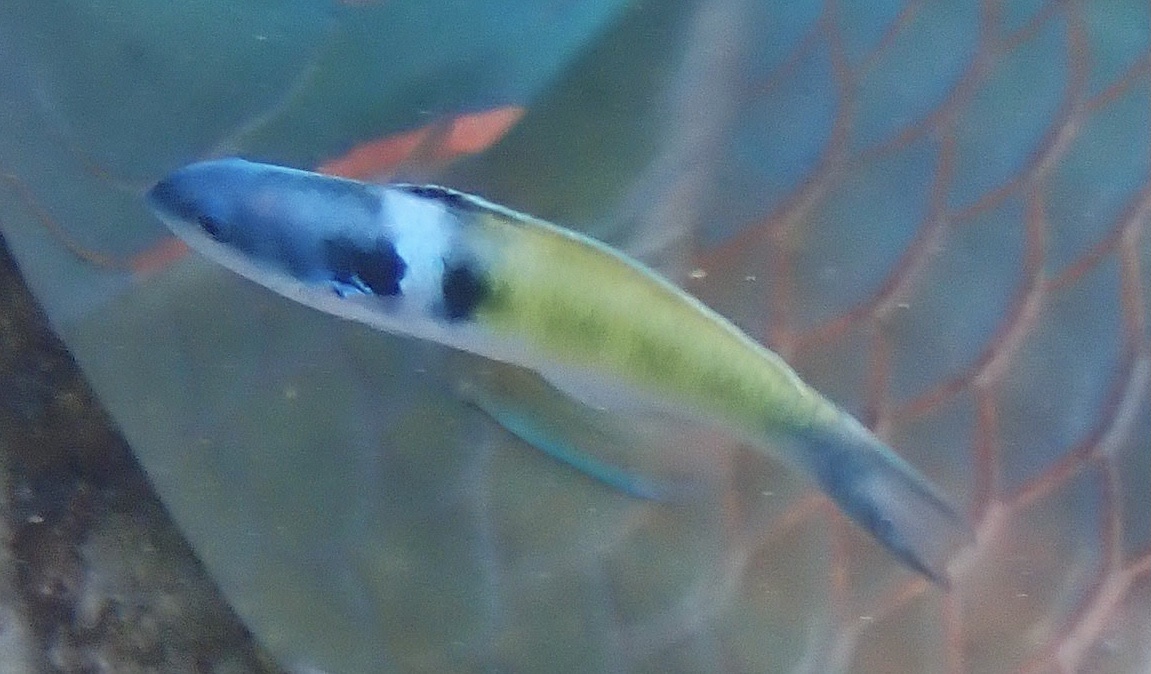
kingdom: Animalia
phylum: Chordata
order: Perciformes
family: Labridae
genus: Thalassoma
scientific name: Thalassoma bifasciatum
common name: Bluehead wrasse
